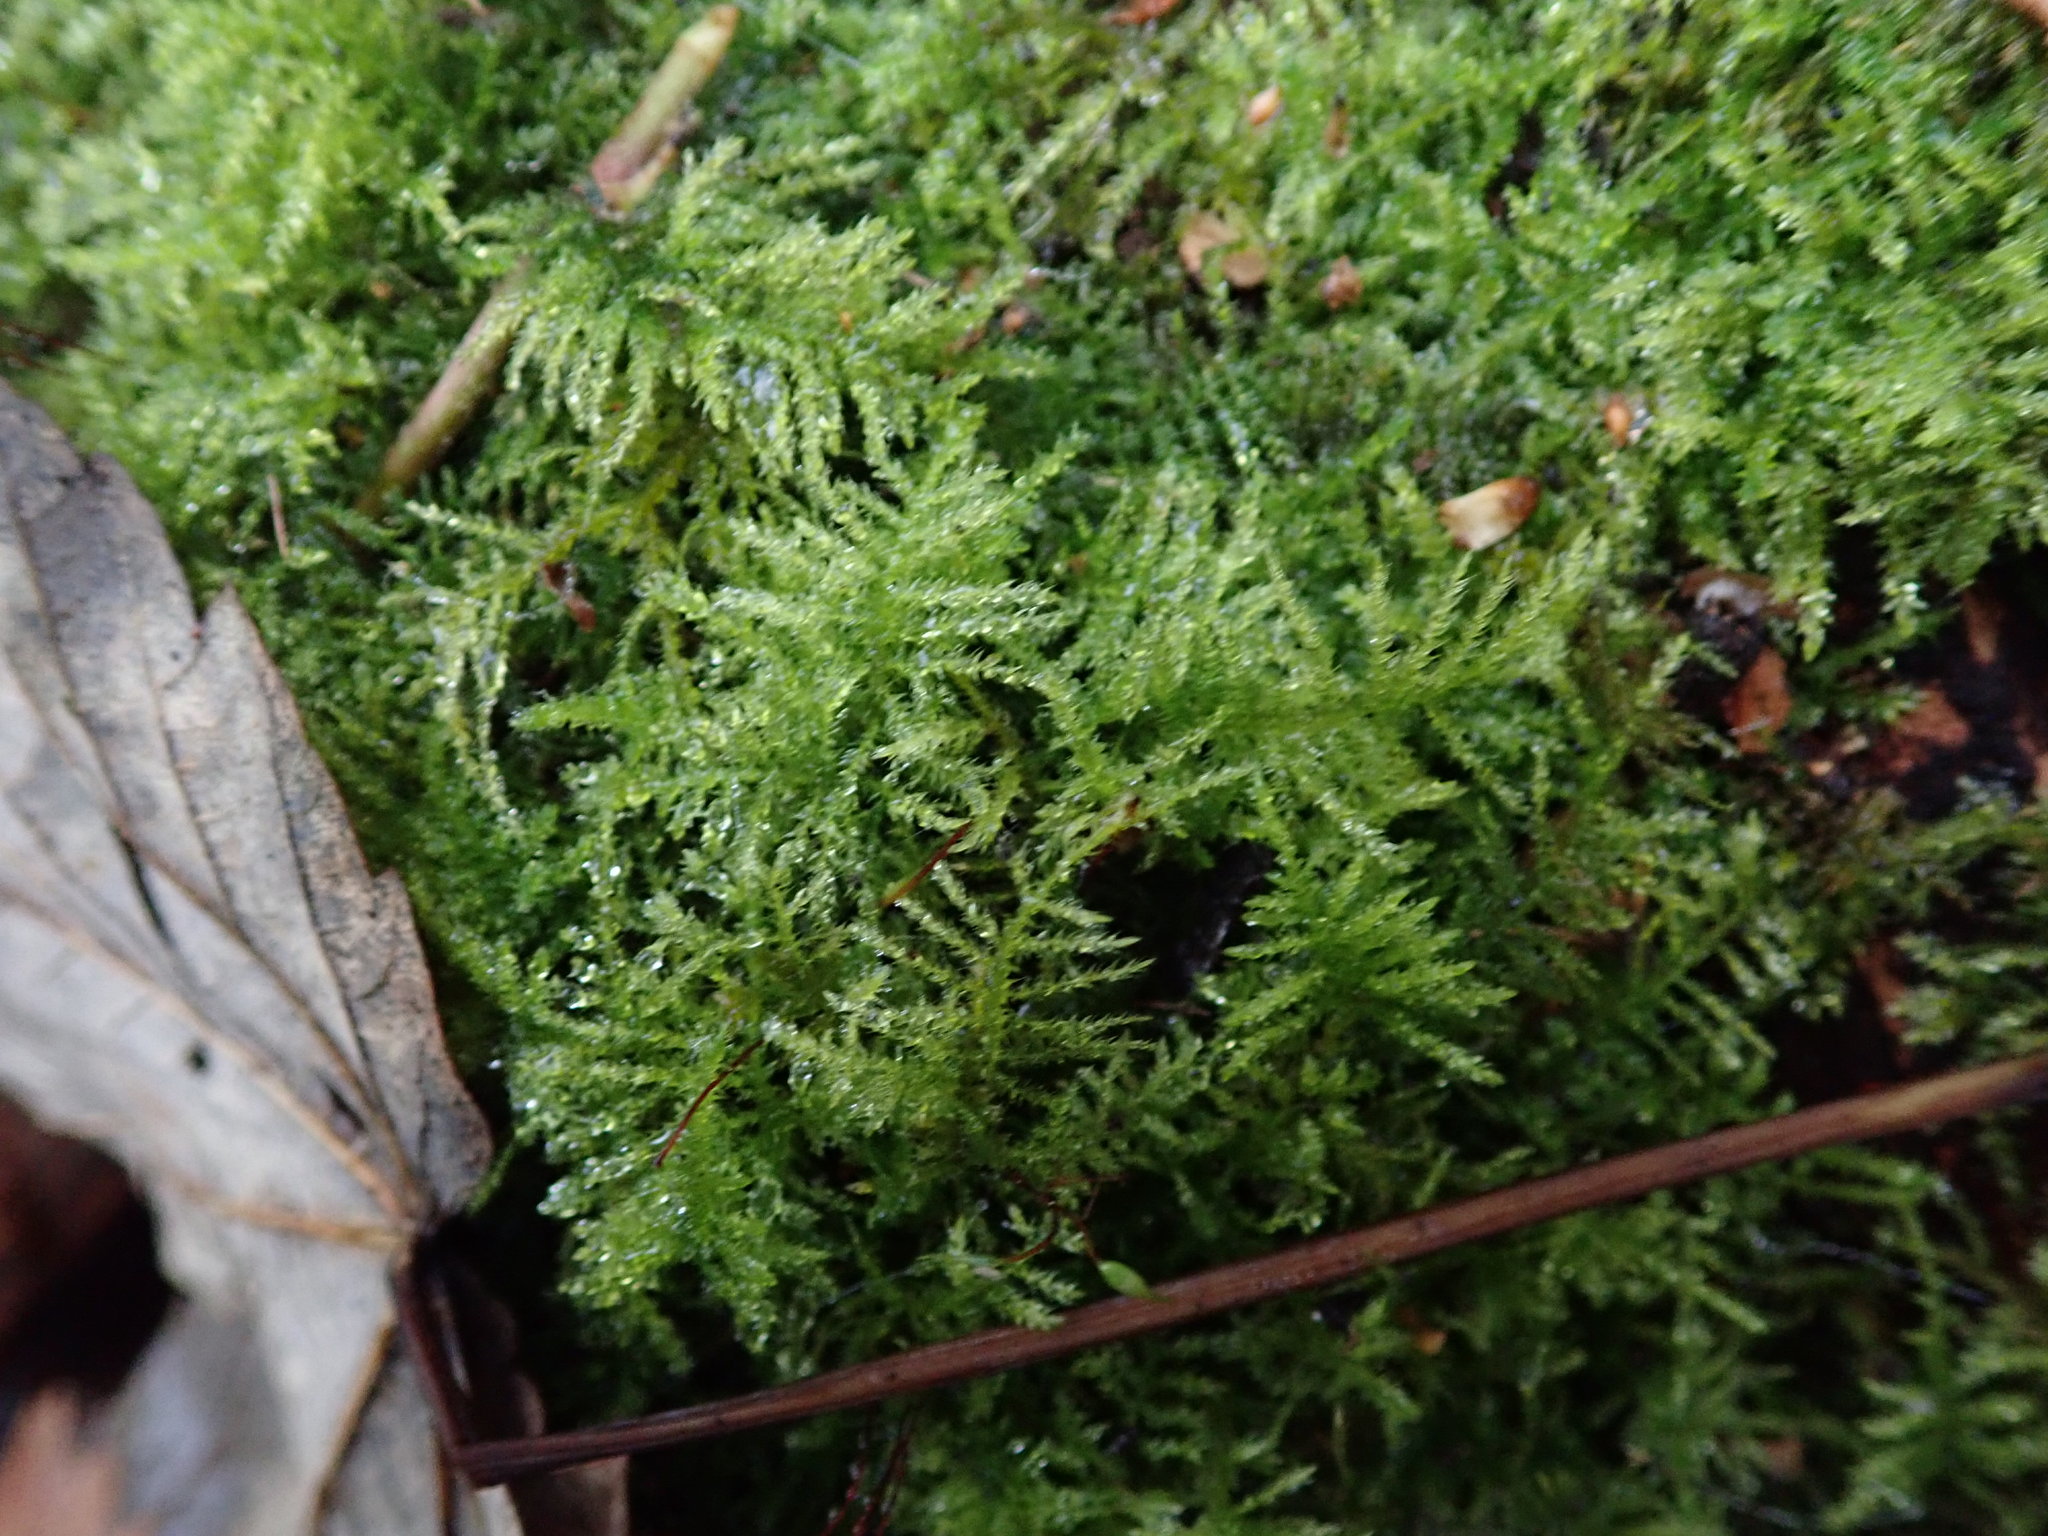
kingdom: Plantae
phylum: Bryophyta
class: Bryopsida
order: Hypnales
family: Brachytheciaceae
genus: Kindbergia
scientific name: Kindbergia praelonga
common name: Slender beaked moss
